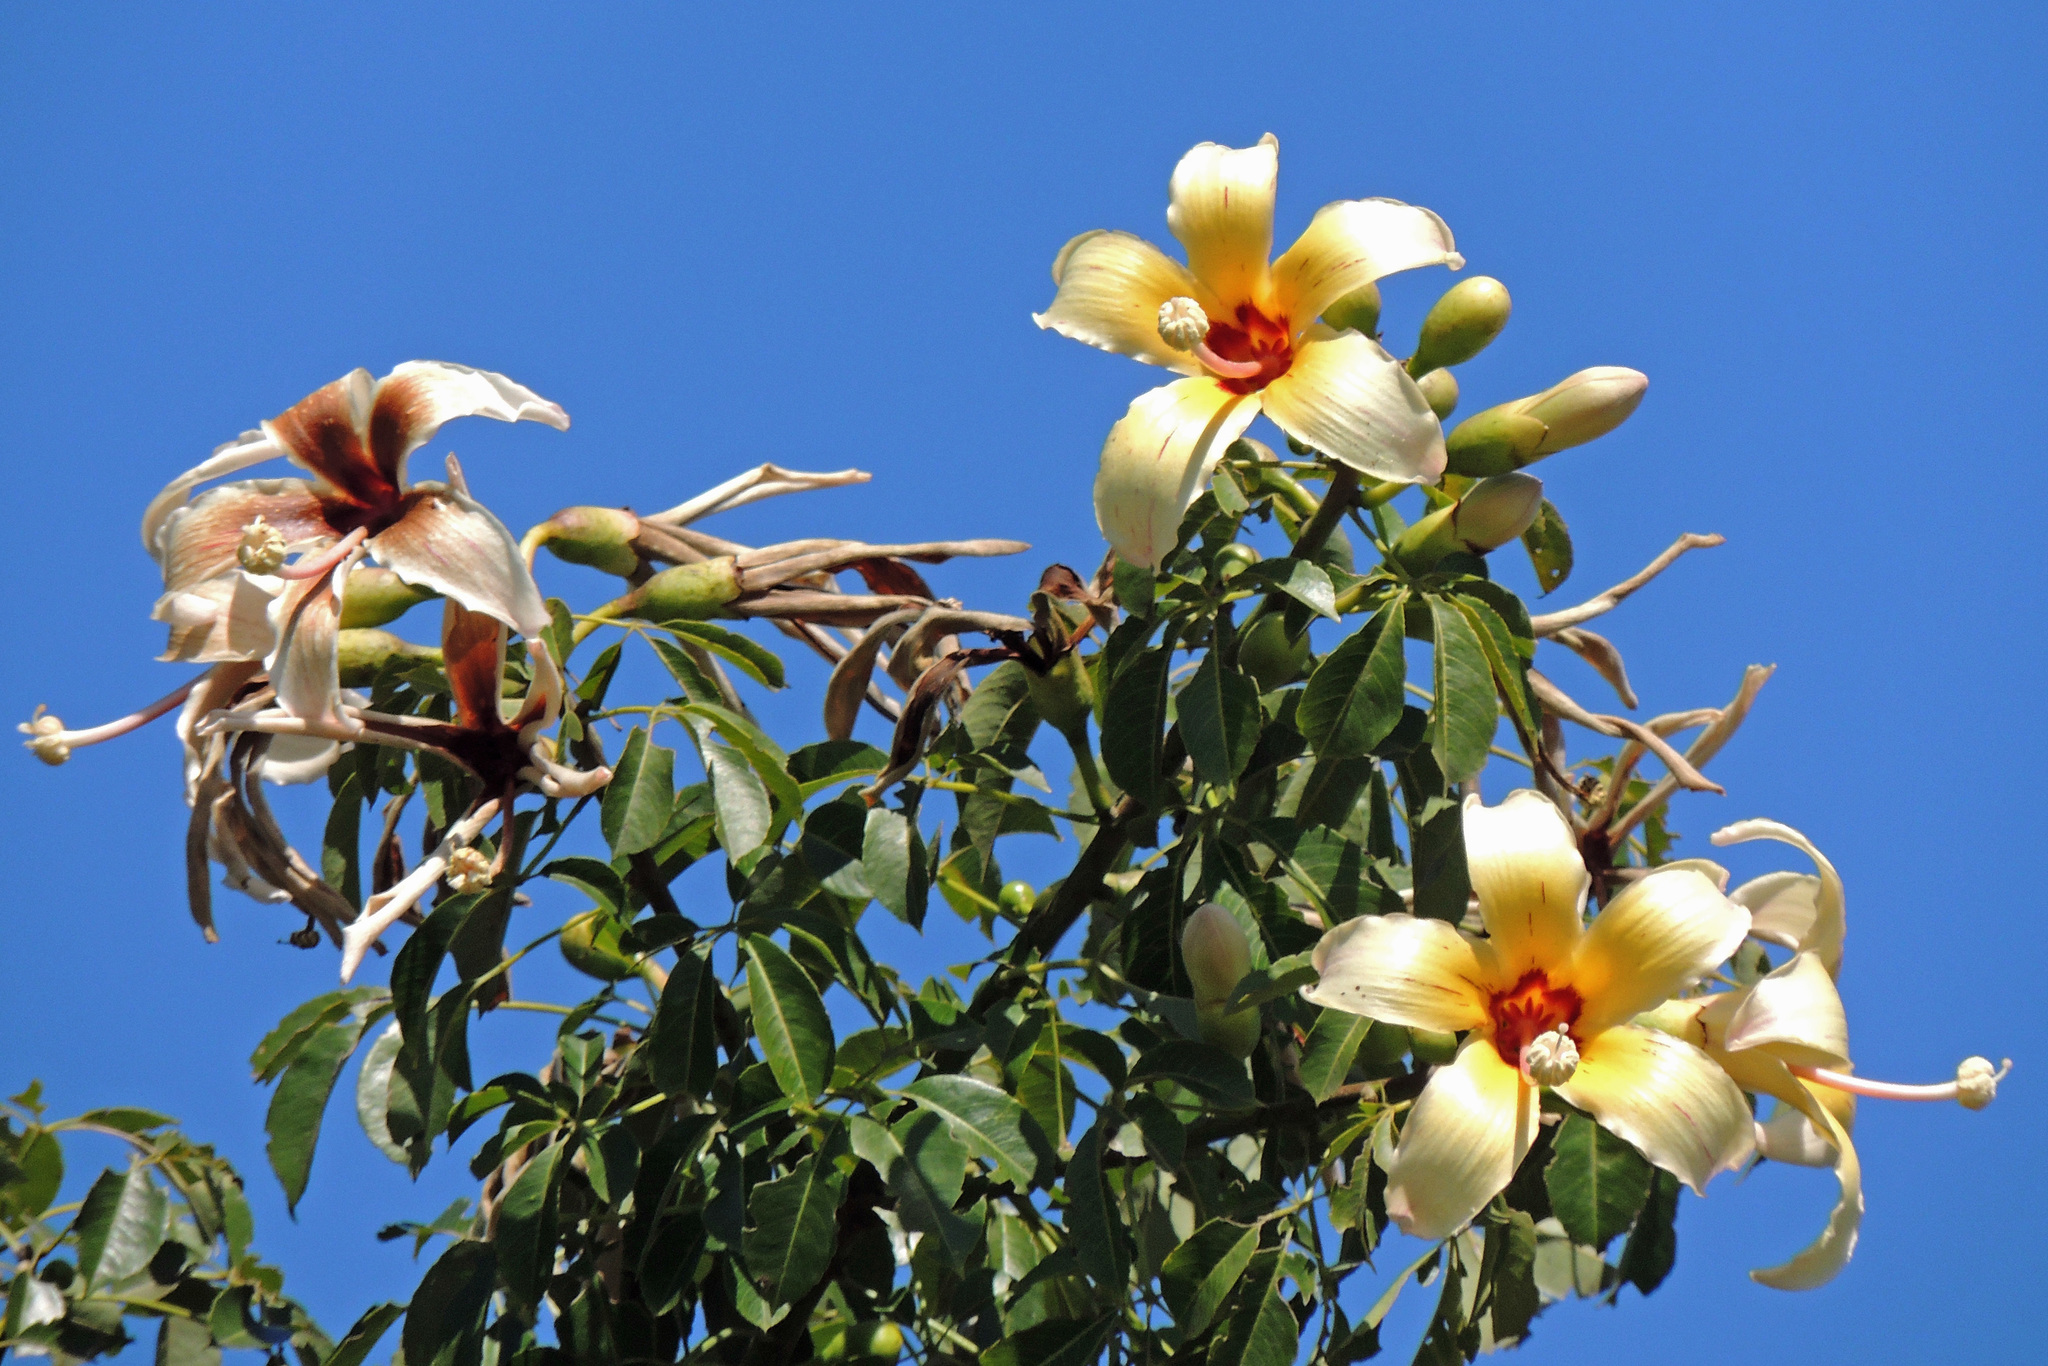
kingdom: Plantae
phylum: Tracheophyta
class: Magnoliopsida
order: Malvales
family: Malvaceae
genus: Ceiba
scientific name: Ceiba chodatii
